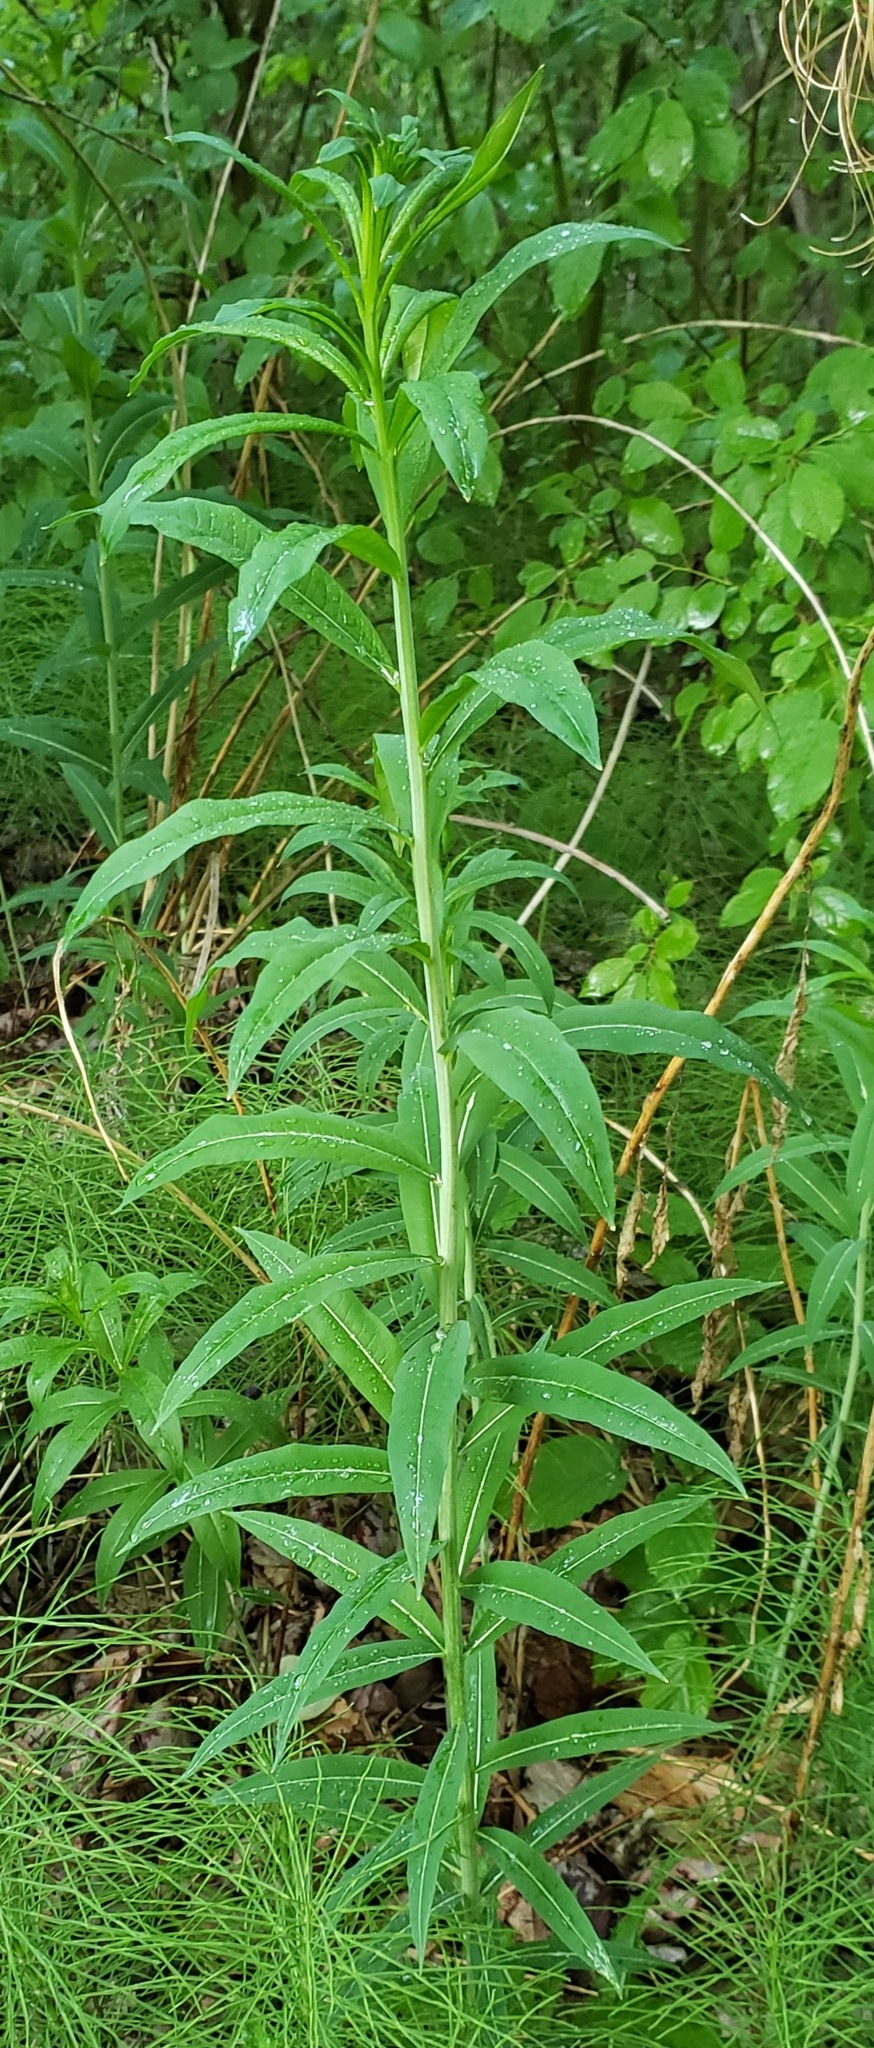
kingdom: Plantae
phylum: Tracheophyta
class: Magnoliopsida
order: Myrtales
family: Onagraceae
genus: Chamaenerion
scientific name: Chamaenerion angustifolium
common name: Fireweed
